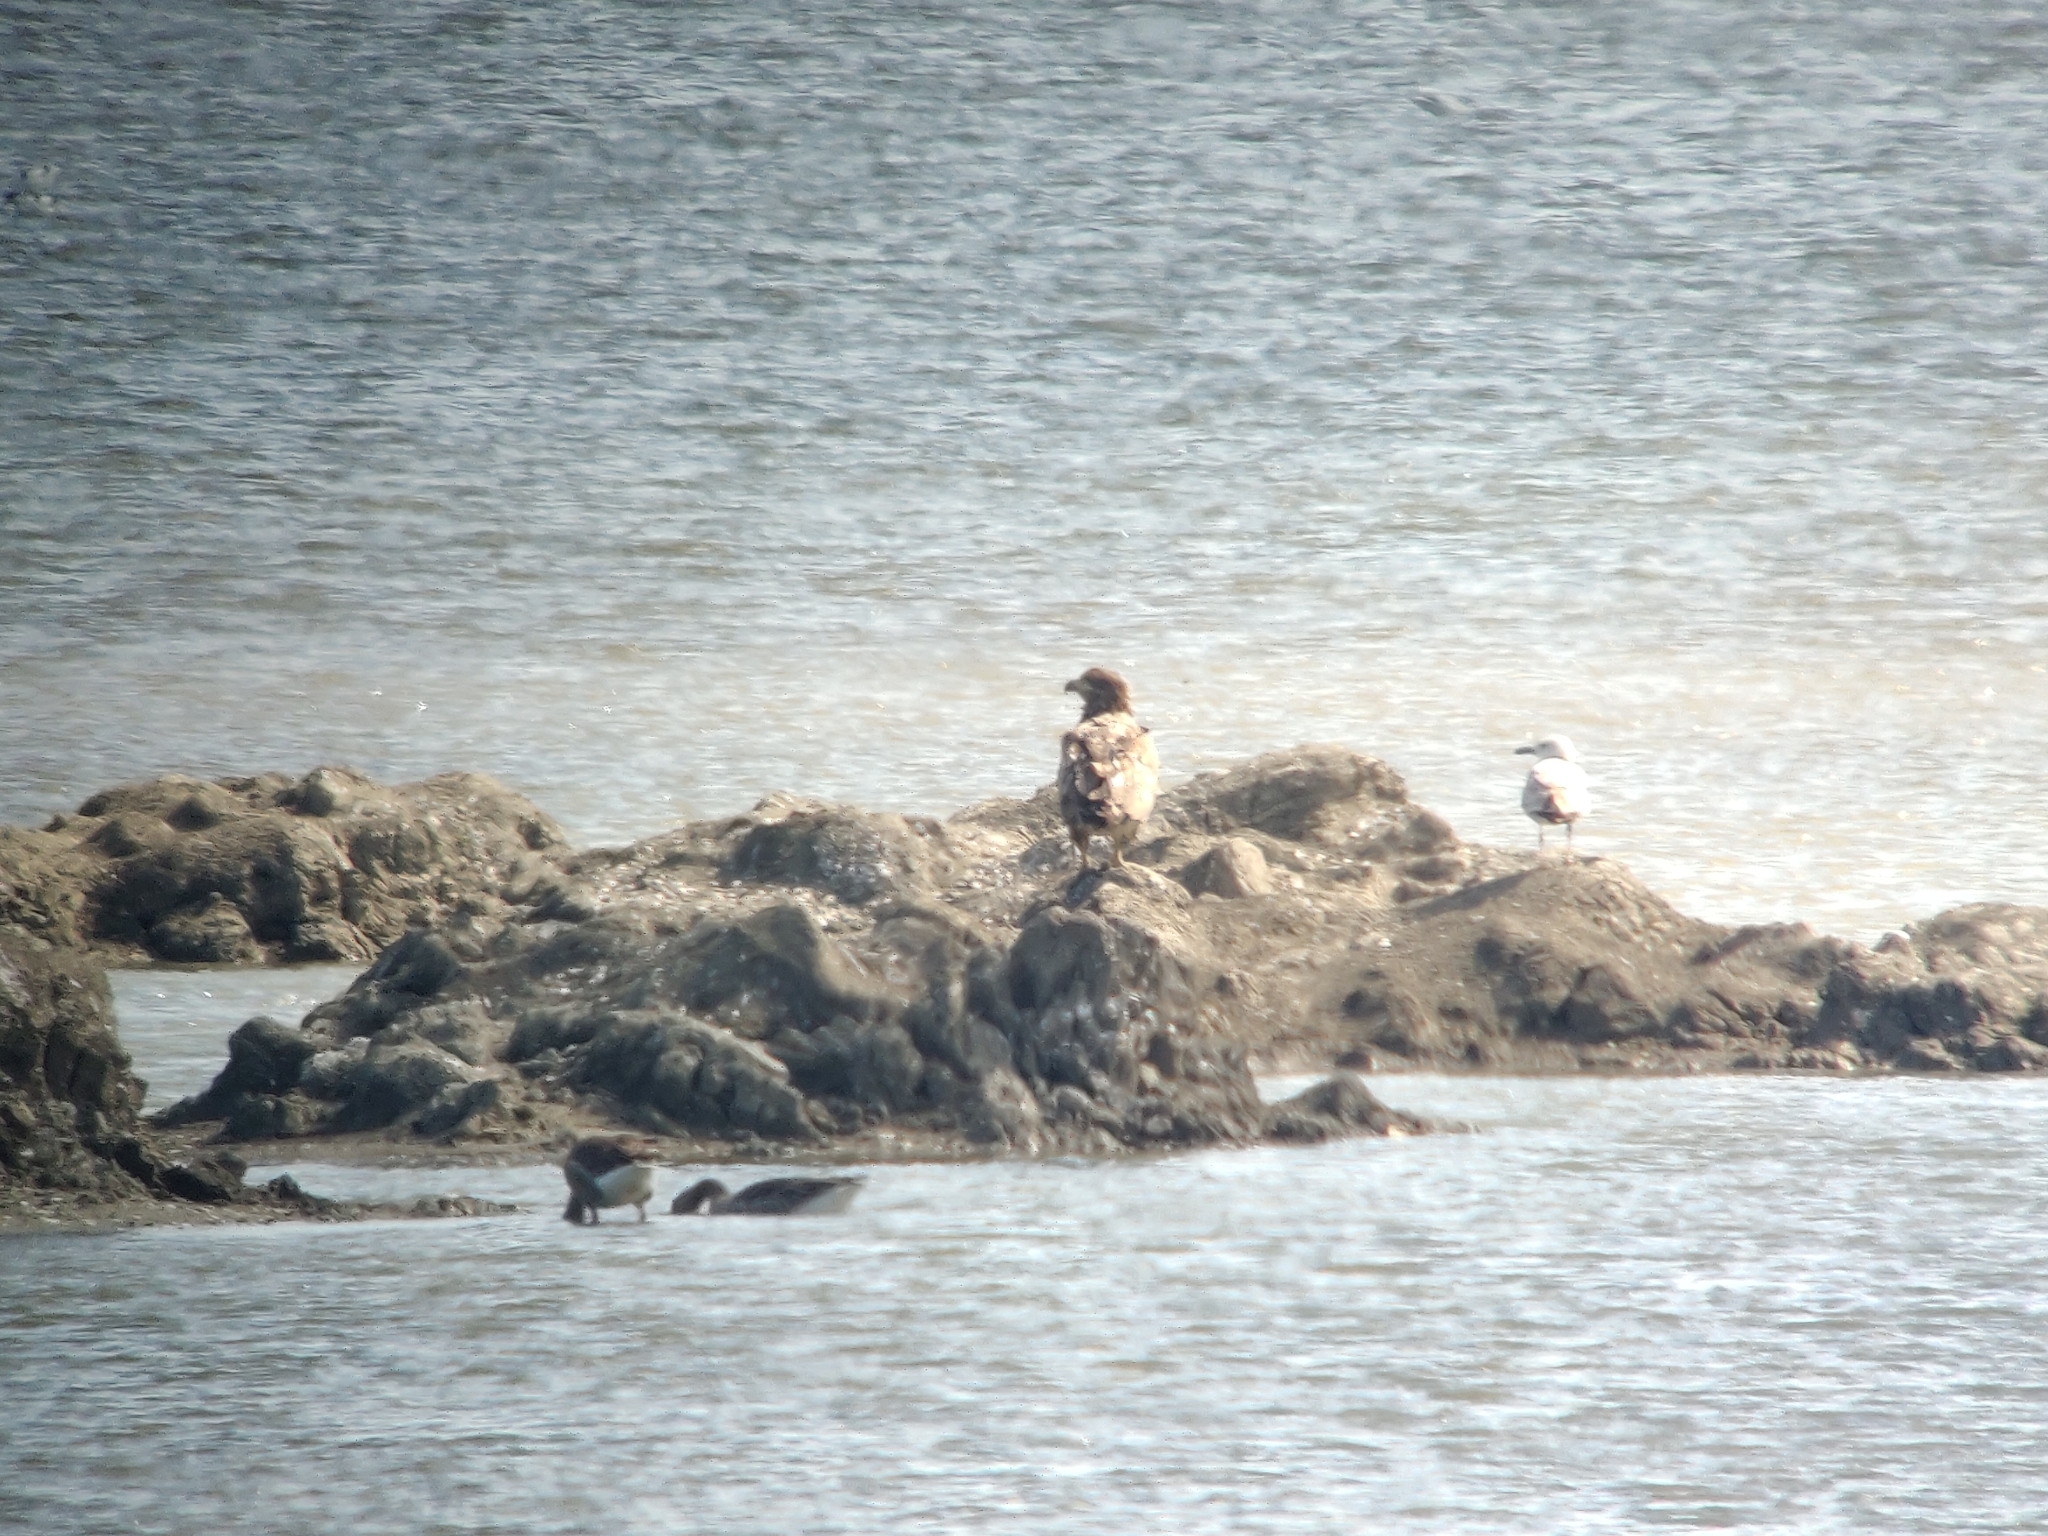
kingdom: Animalia
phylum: Chordata
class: Aves
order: Accipitriformes
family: Accipitridae
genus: Haliaeetus
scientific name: Haliaeetus albicilla
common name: White-tailed eagle
